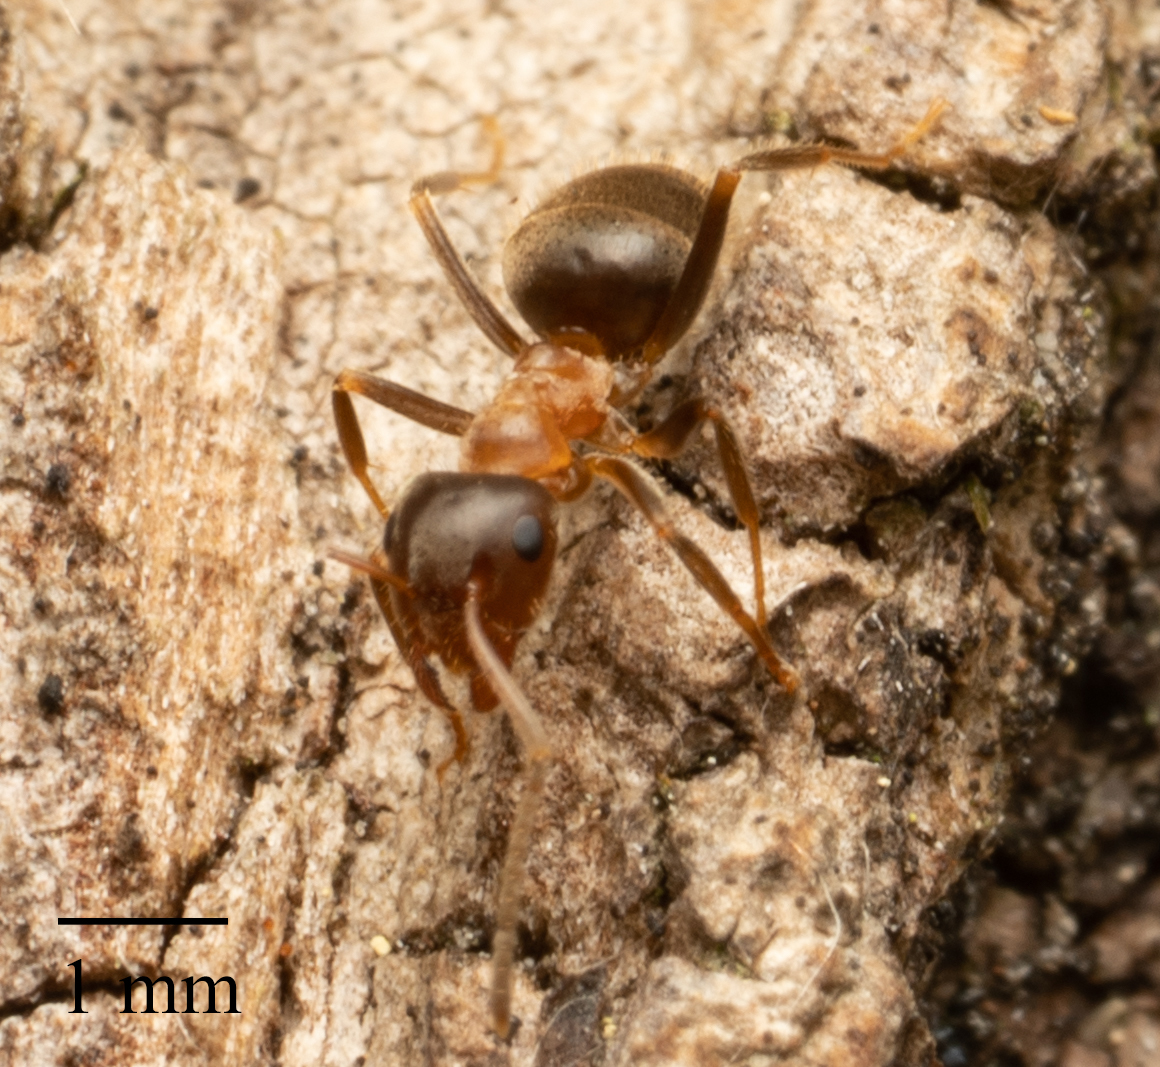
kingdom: Animalia
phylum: Arthropoda
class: Insecta
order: Hymenoptera
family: Formicidae
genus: Lasius
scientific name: Lasius emarginatus
